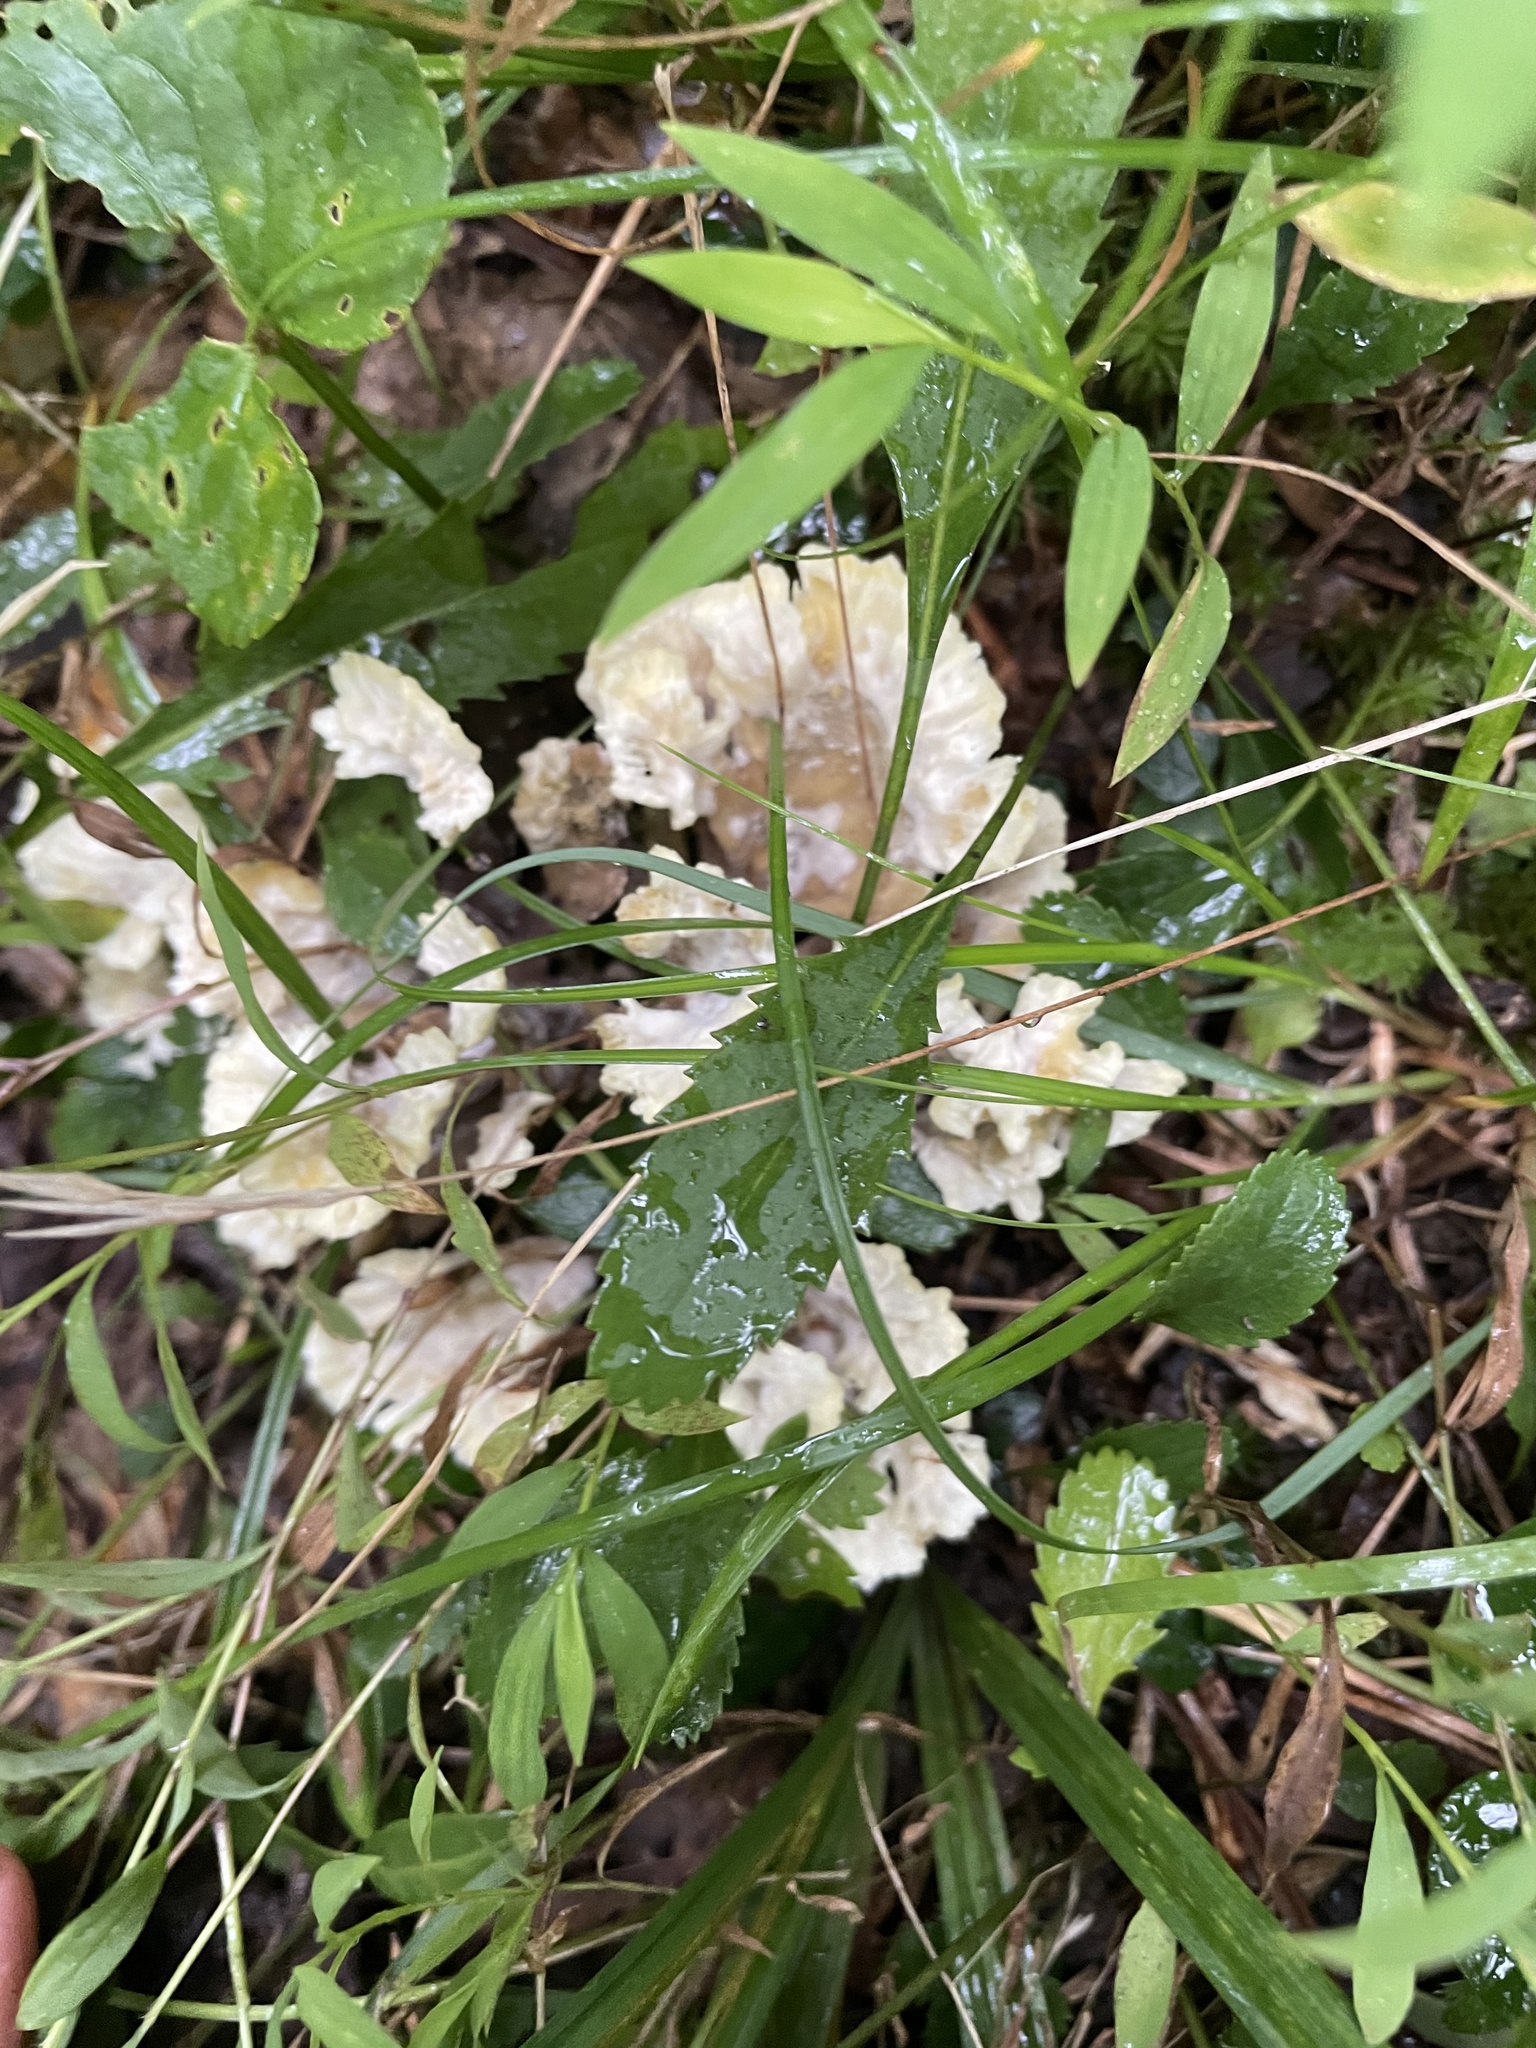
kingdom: Fungi
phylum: Basidiomycota
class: Agaricomycetes
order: Thelephorales
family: Thelephoraceae
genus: Thelephora
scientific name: Thelephora vialis
